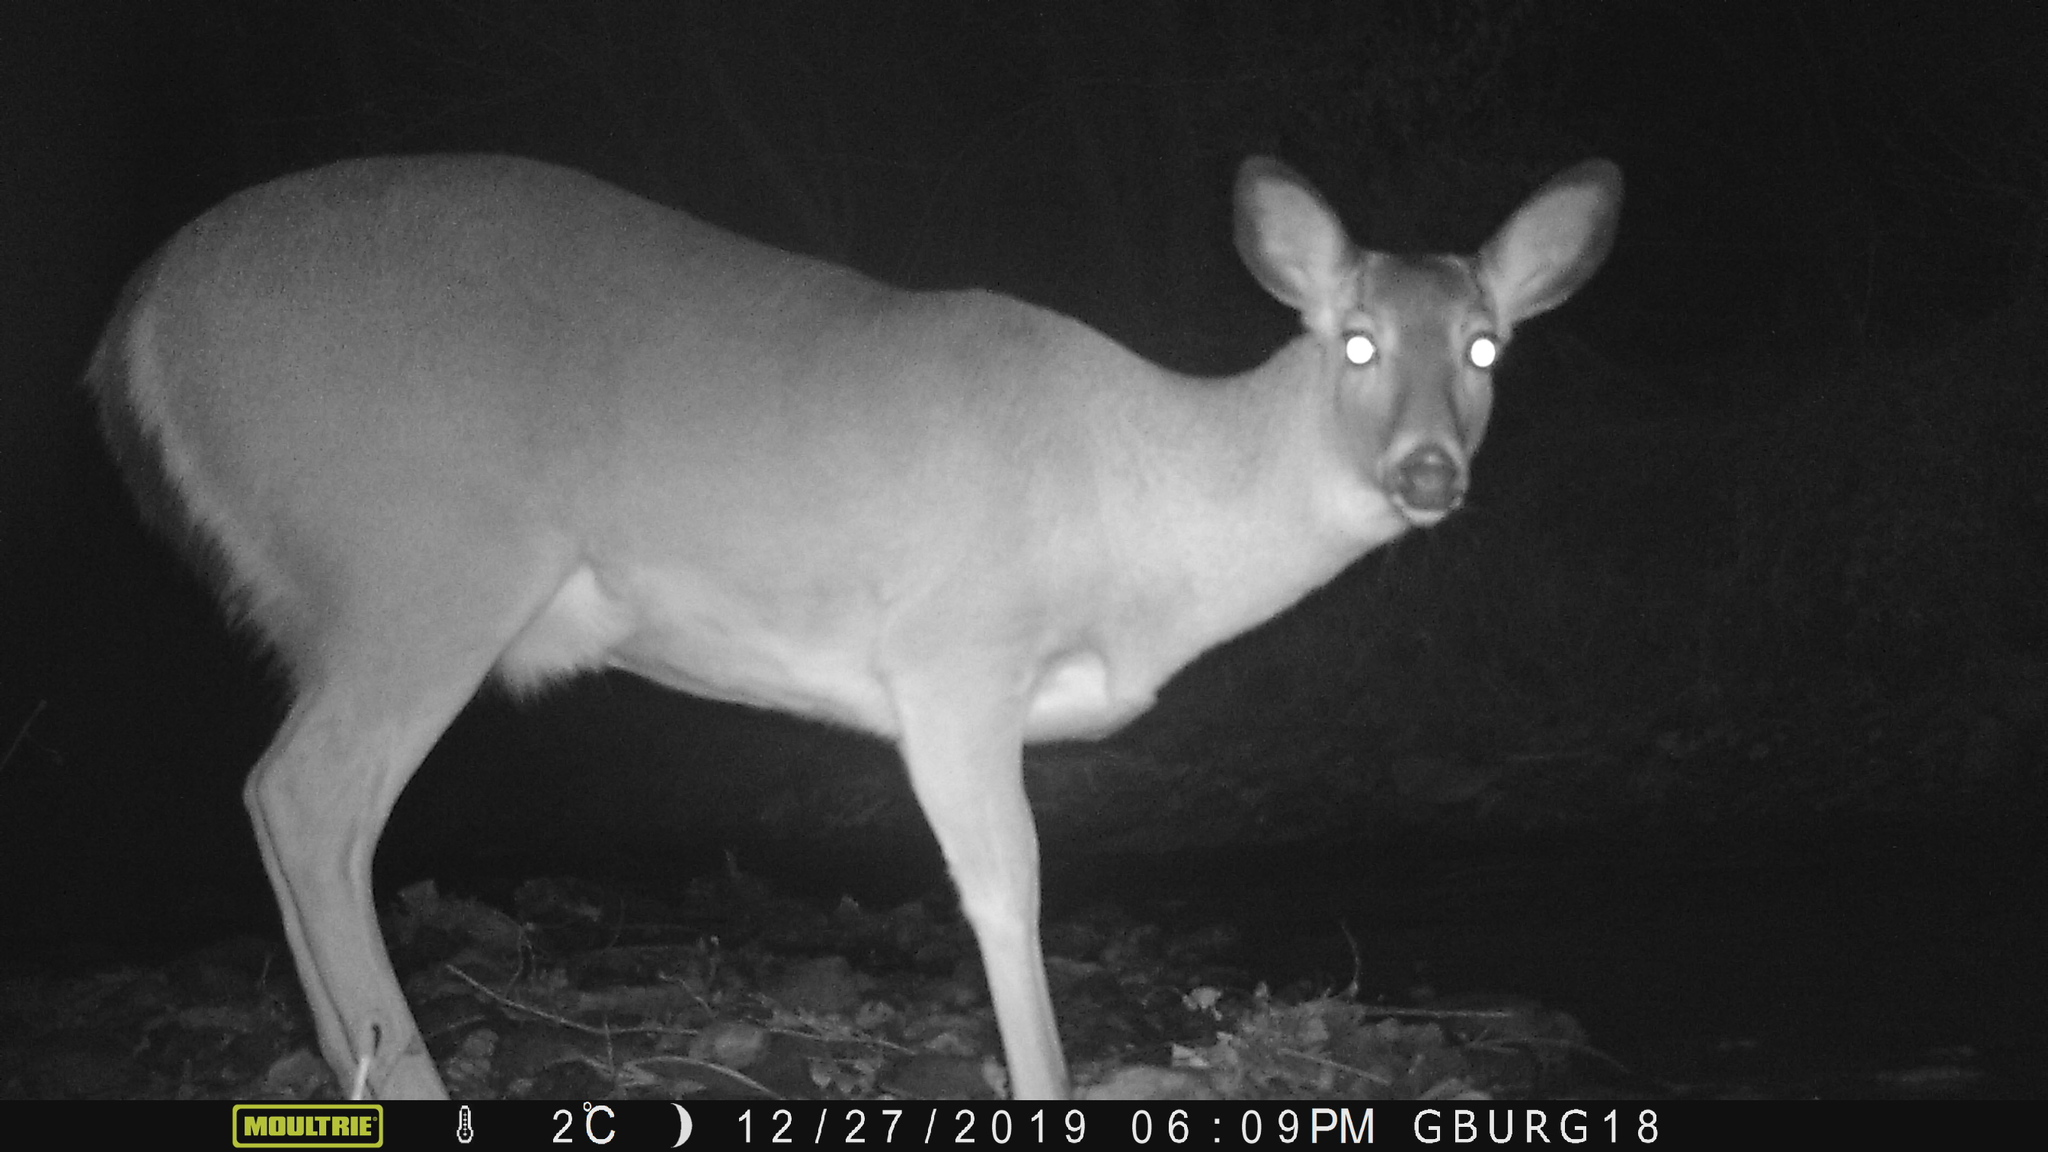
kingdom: Animalia
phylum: Chordata
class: Mammalia
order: Artiodactyla
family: Cervidae
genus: Odocoileus
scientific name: Odocoileus virginianus
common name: White-tailed deer
